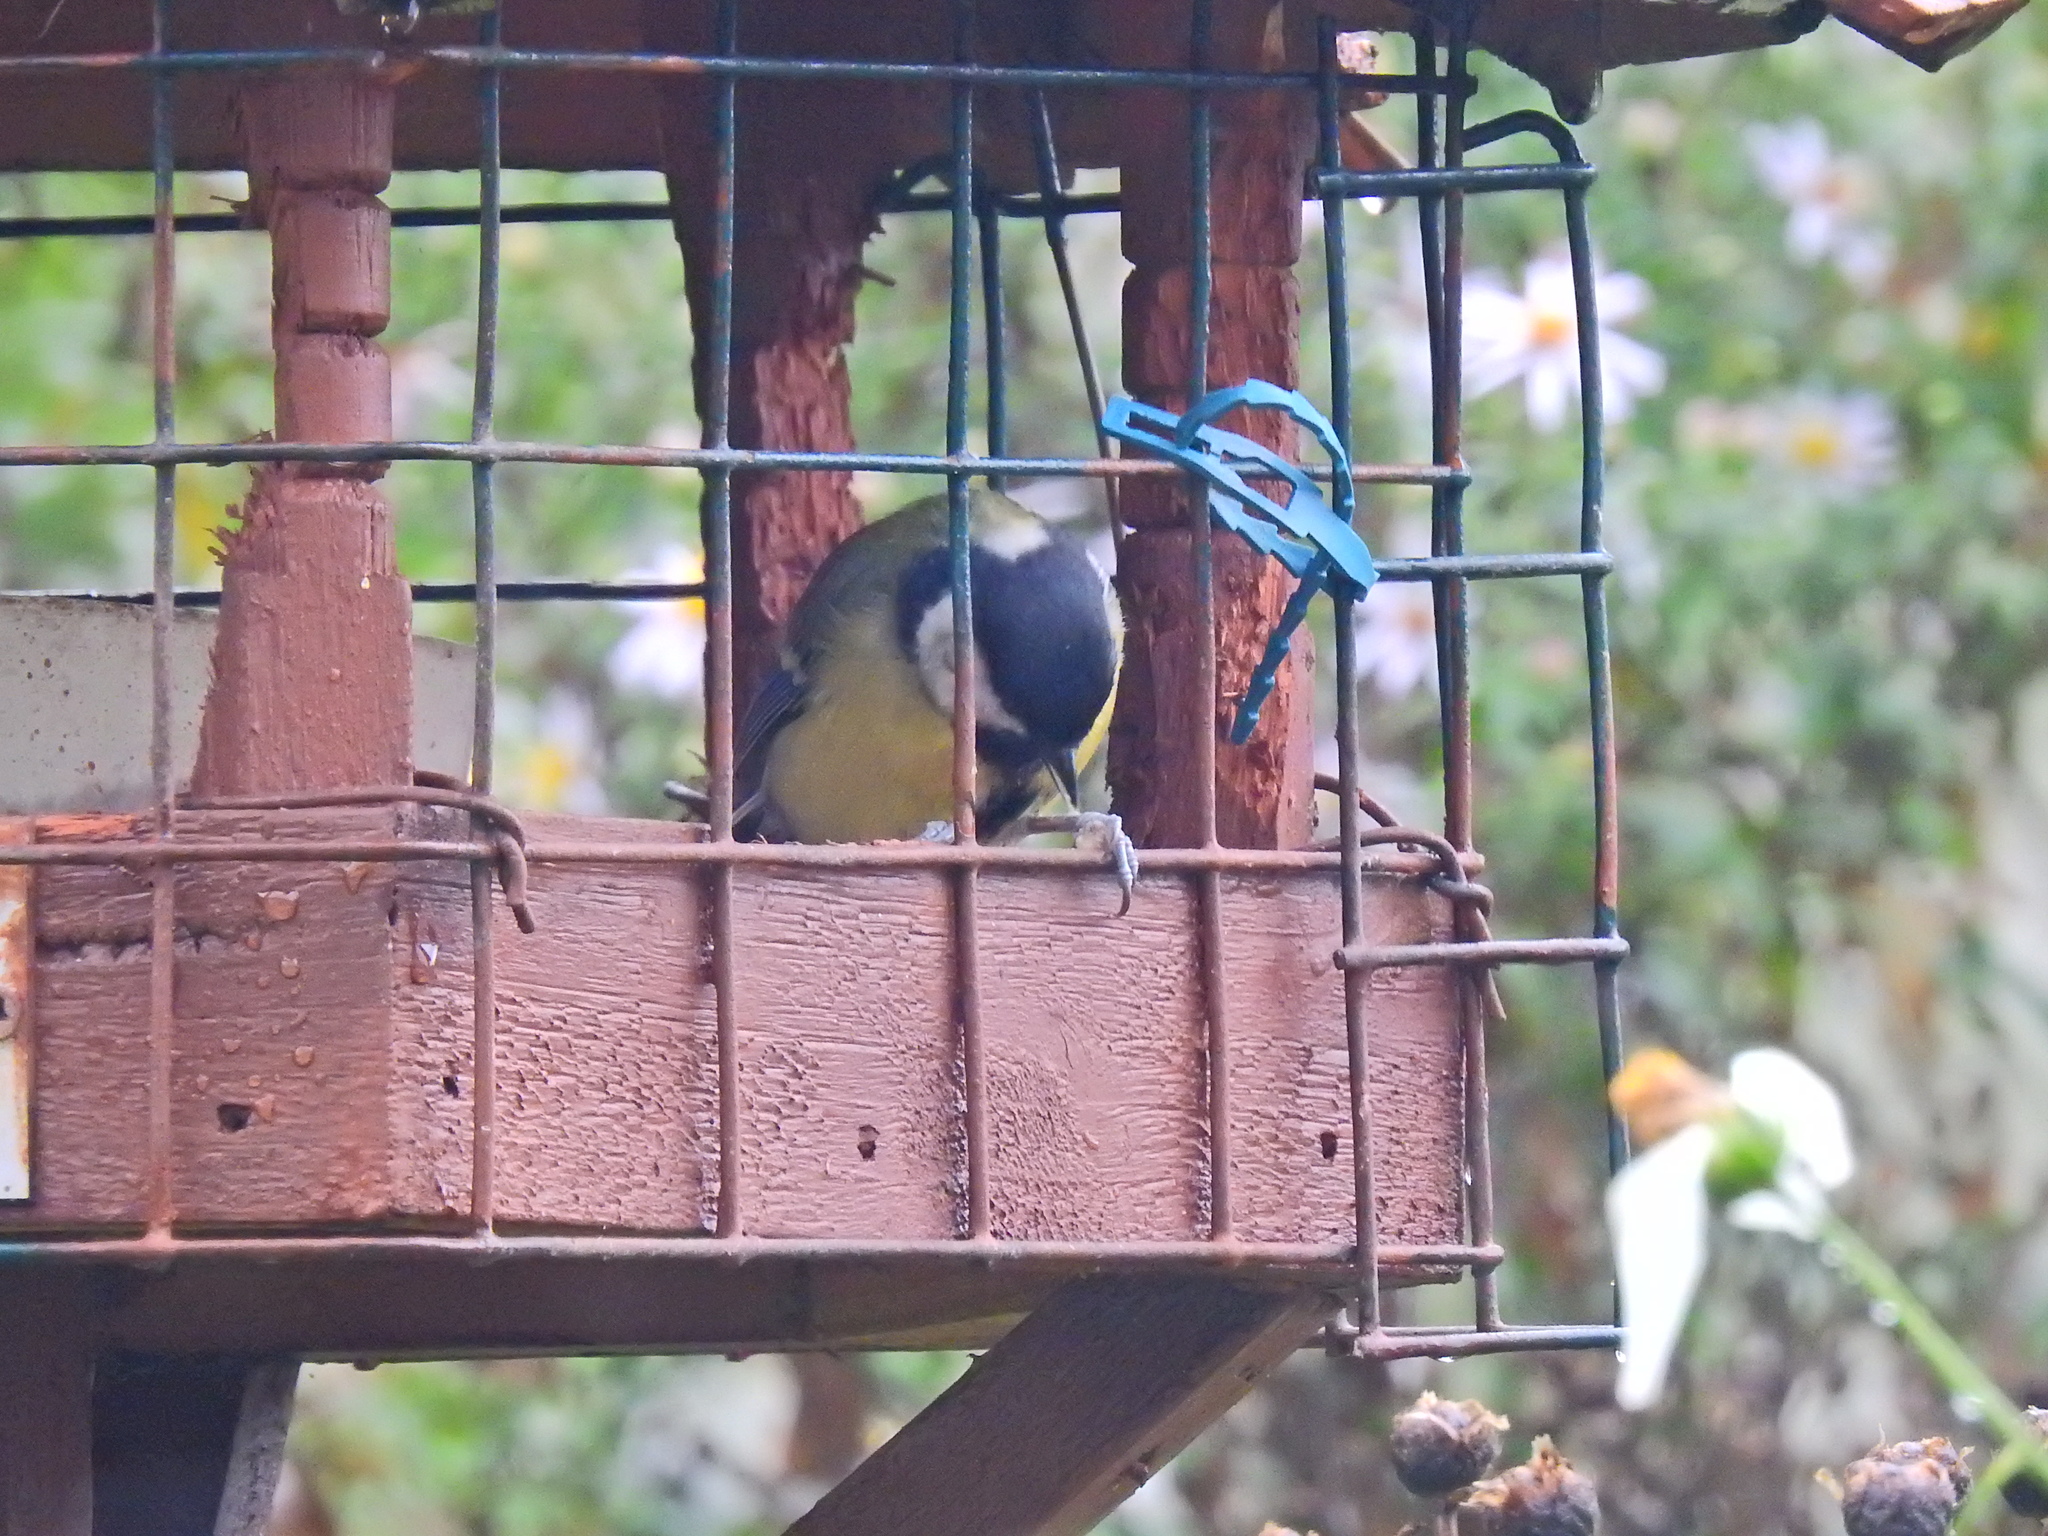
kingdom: Animalia
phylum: Chordata
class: Aves
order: Passeriformes
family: Paridae
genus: Parus
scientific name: Parus major
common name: Great tit
